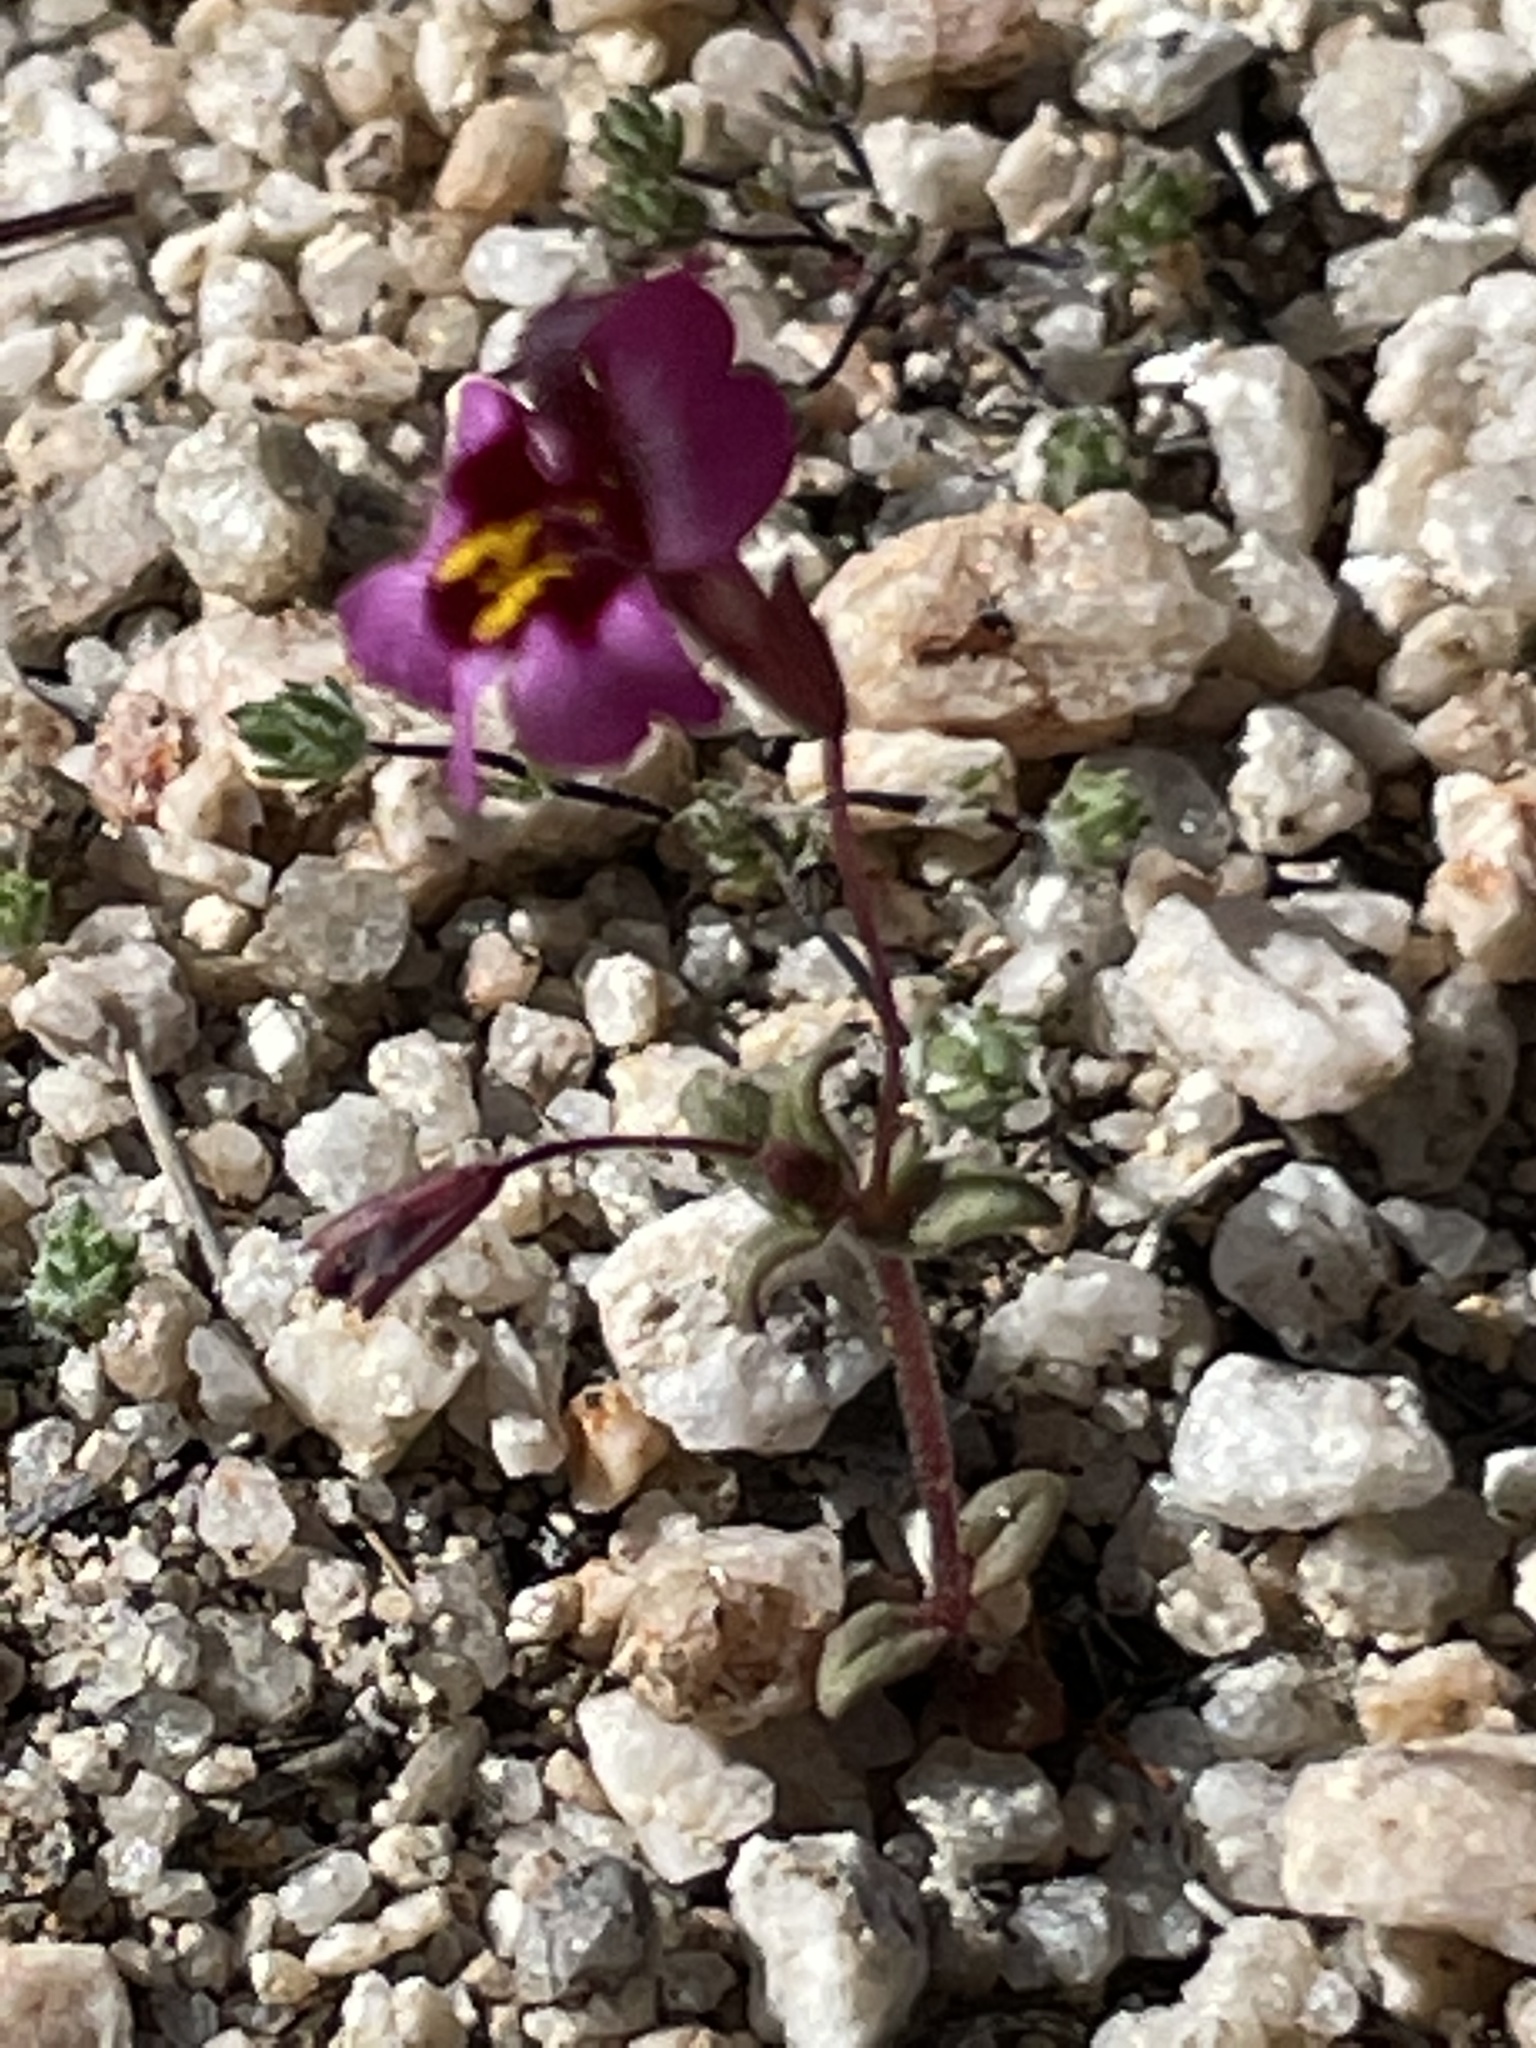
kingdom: Plantae
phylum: Tracheophyta
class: Magnoliopsida
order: Lamiales
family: Phrymaceae
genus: Erythranthe
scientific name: Erythranthe purpurea
